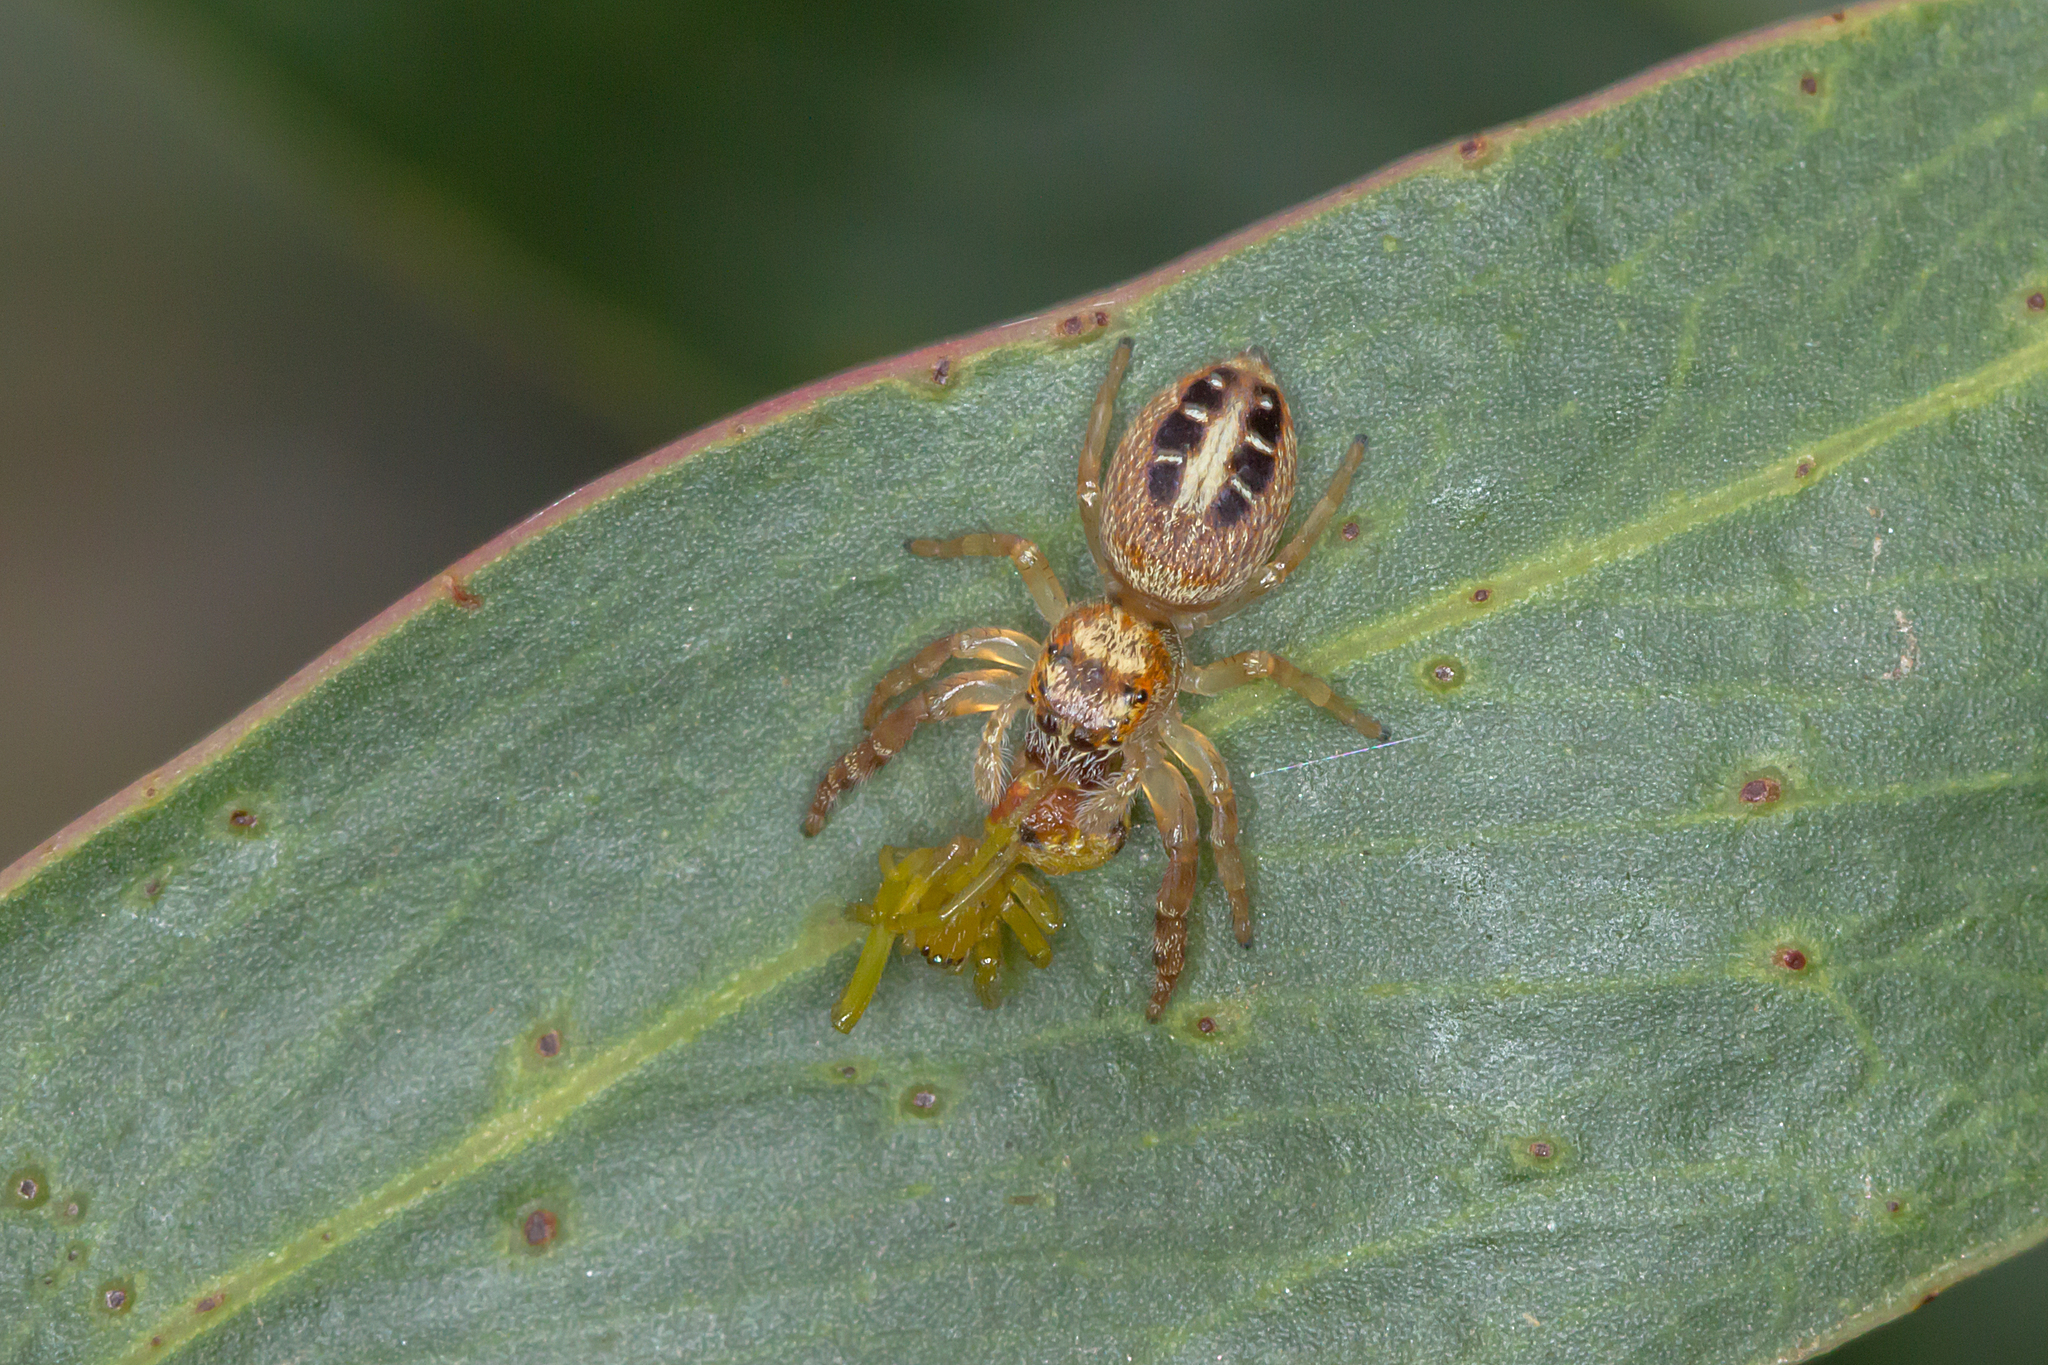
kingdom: Animalia
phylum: Arthropoda
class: Arachnida
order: Araneae
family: Salticidae
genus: Opisthoncus
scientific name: Opisthoncus sexmaculatus
